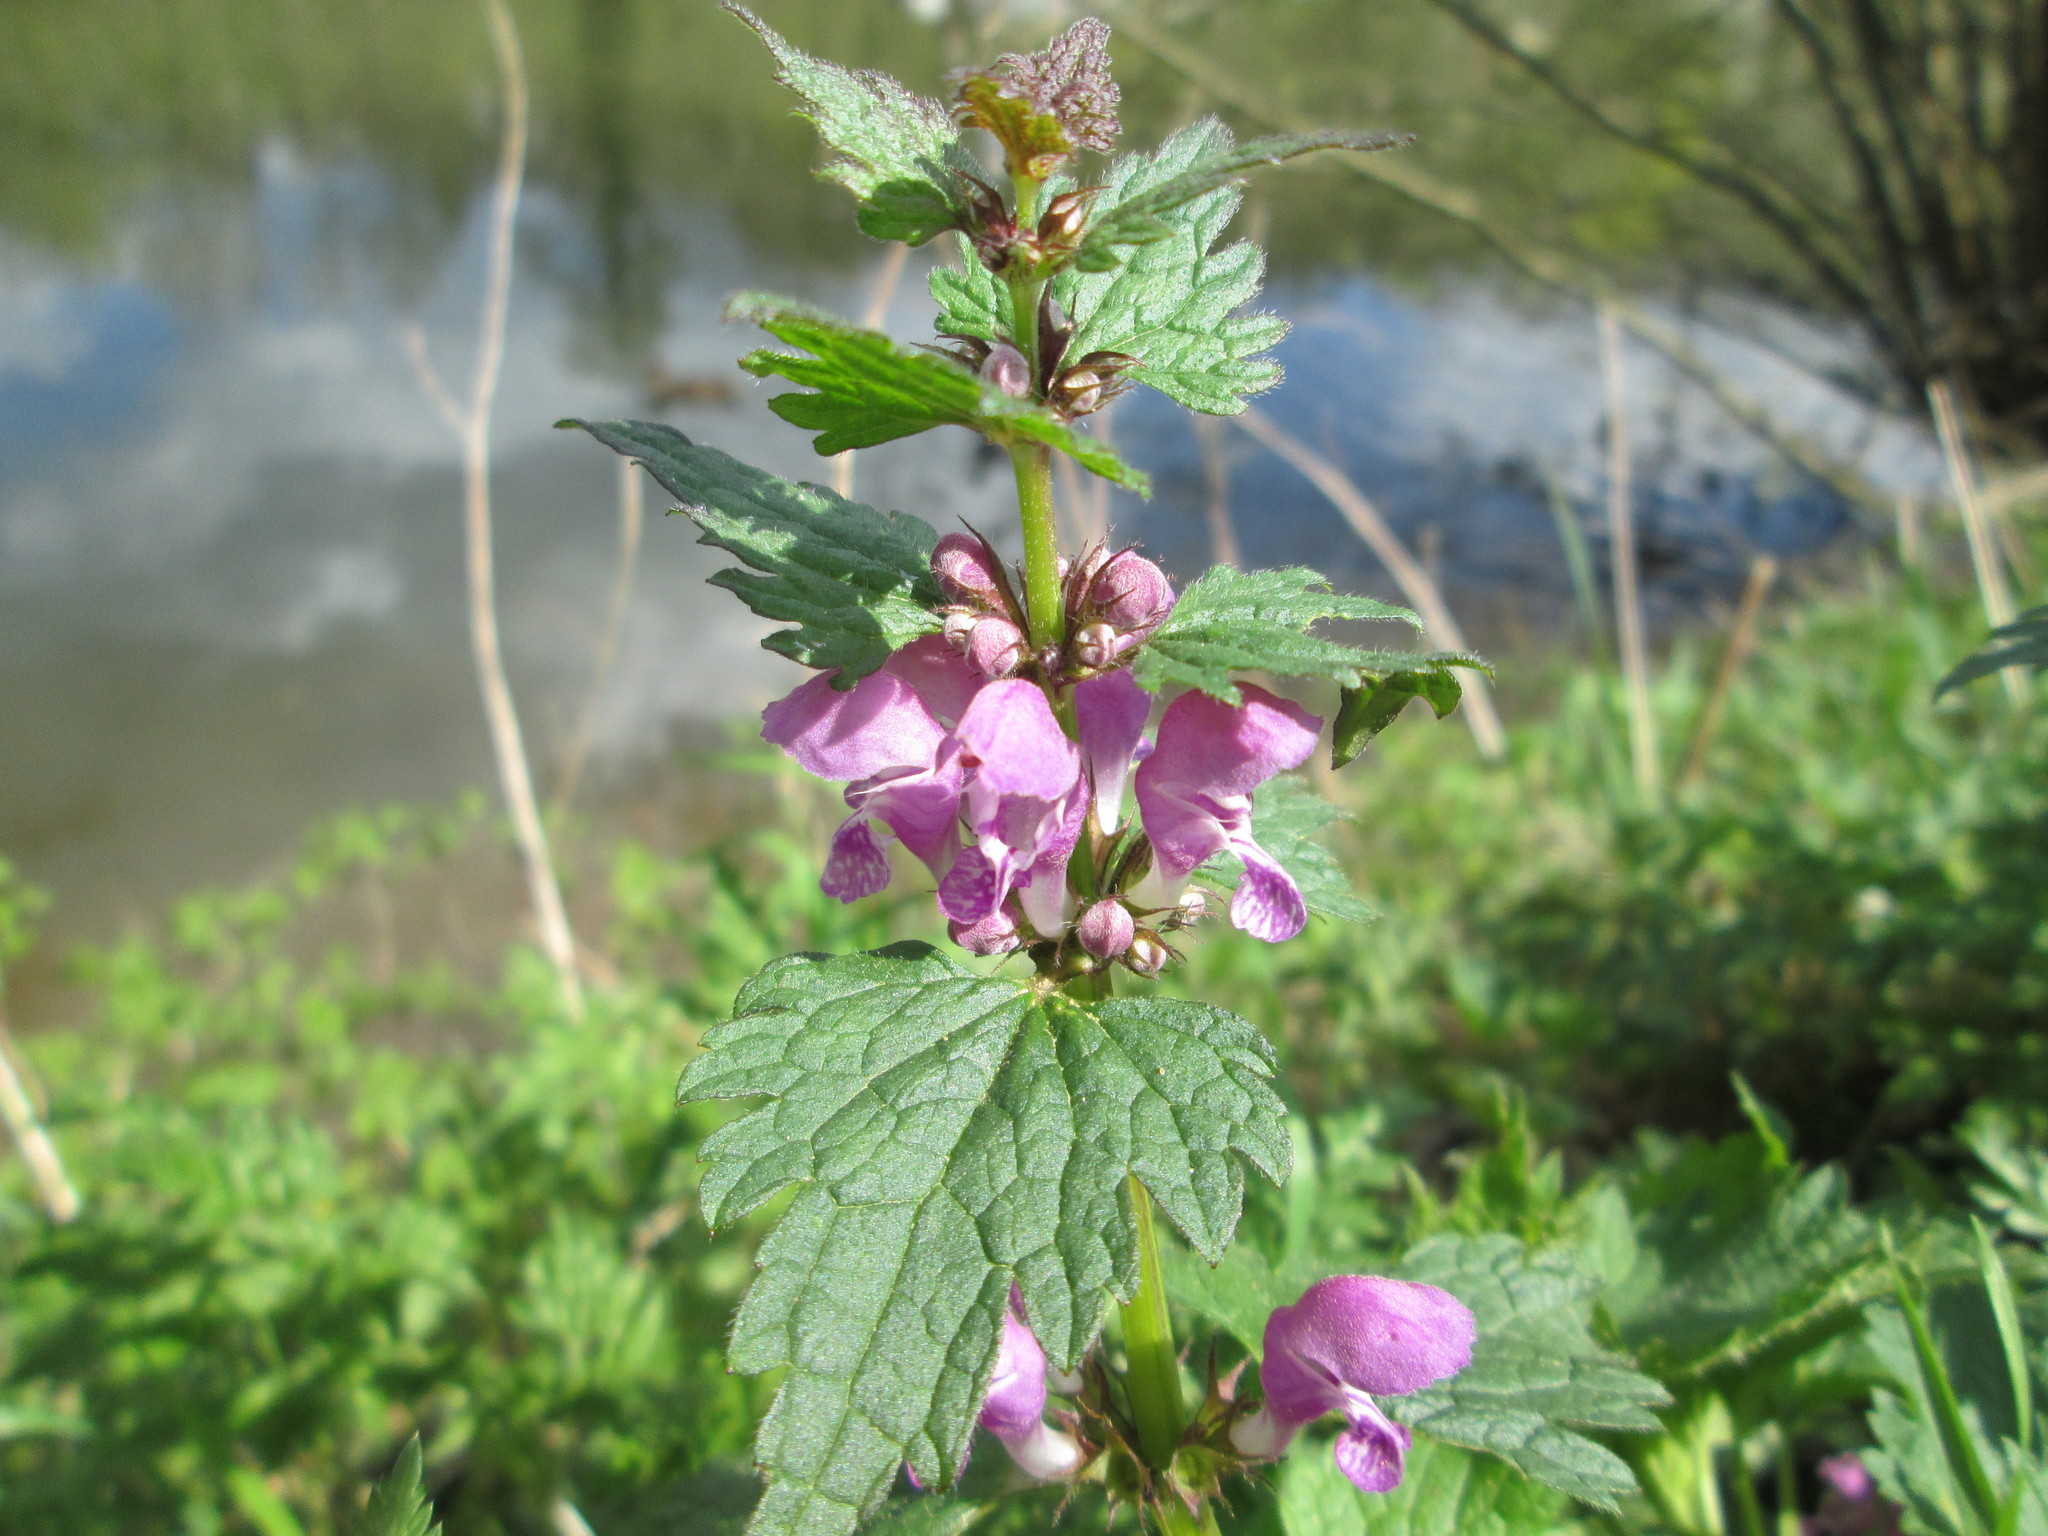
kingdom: Plantae
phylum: Tracheophyta
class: Magnoliopsida
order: Lamiales
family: Lamiaceae
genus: Lamium
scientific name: Lamium maculatum
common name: Spotted dead-nettle
